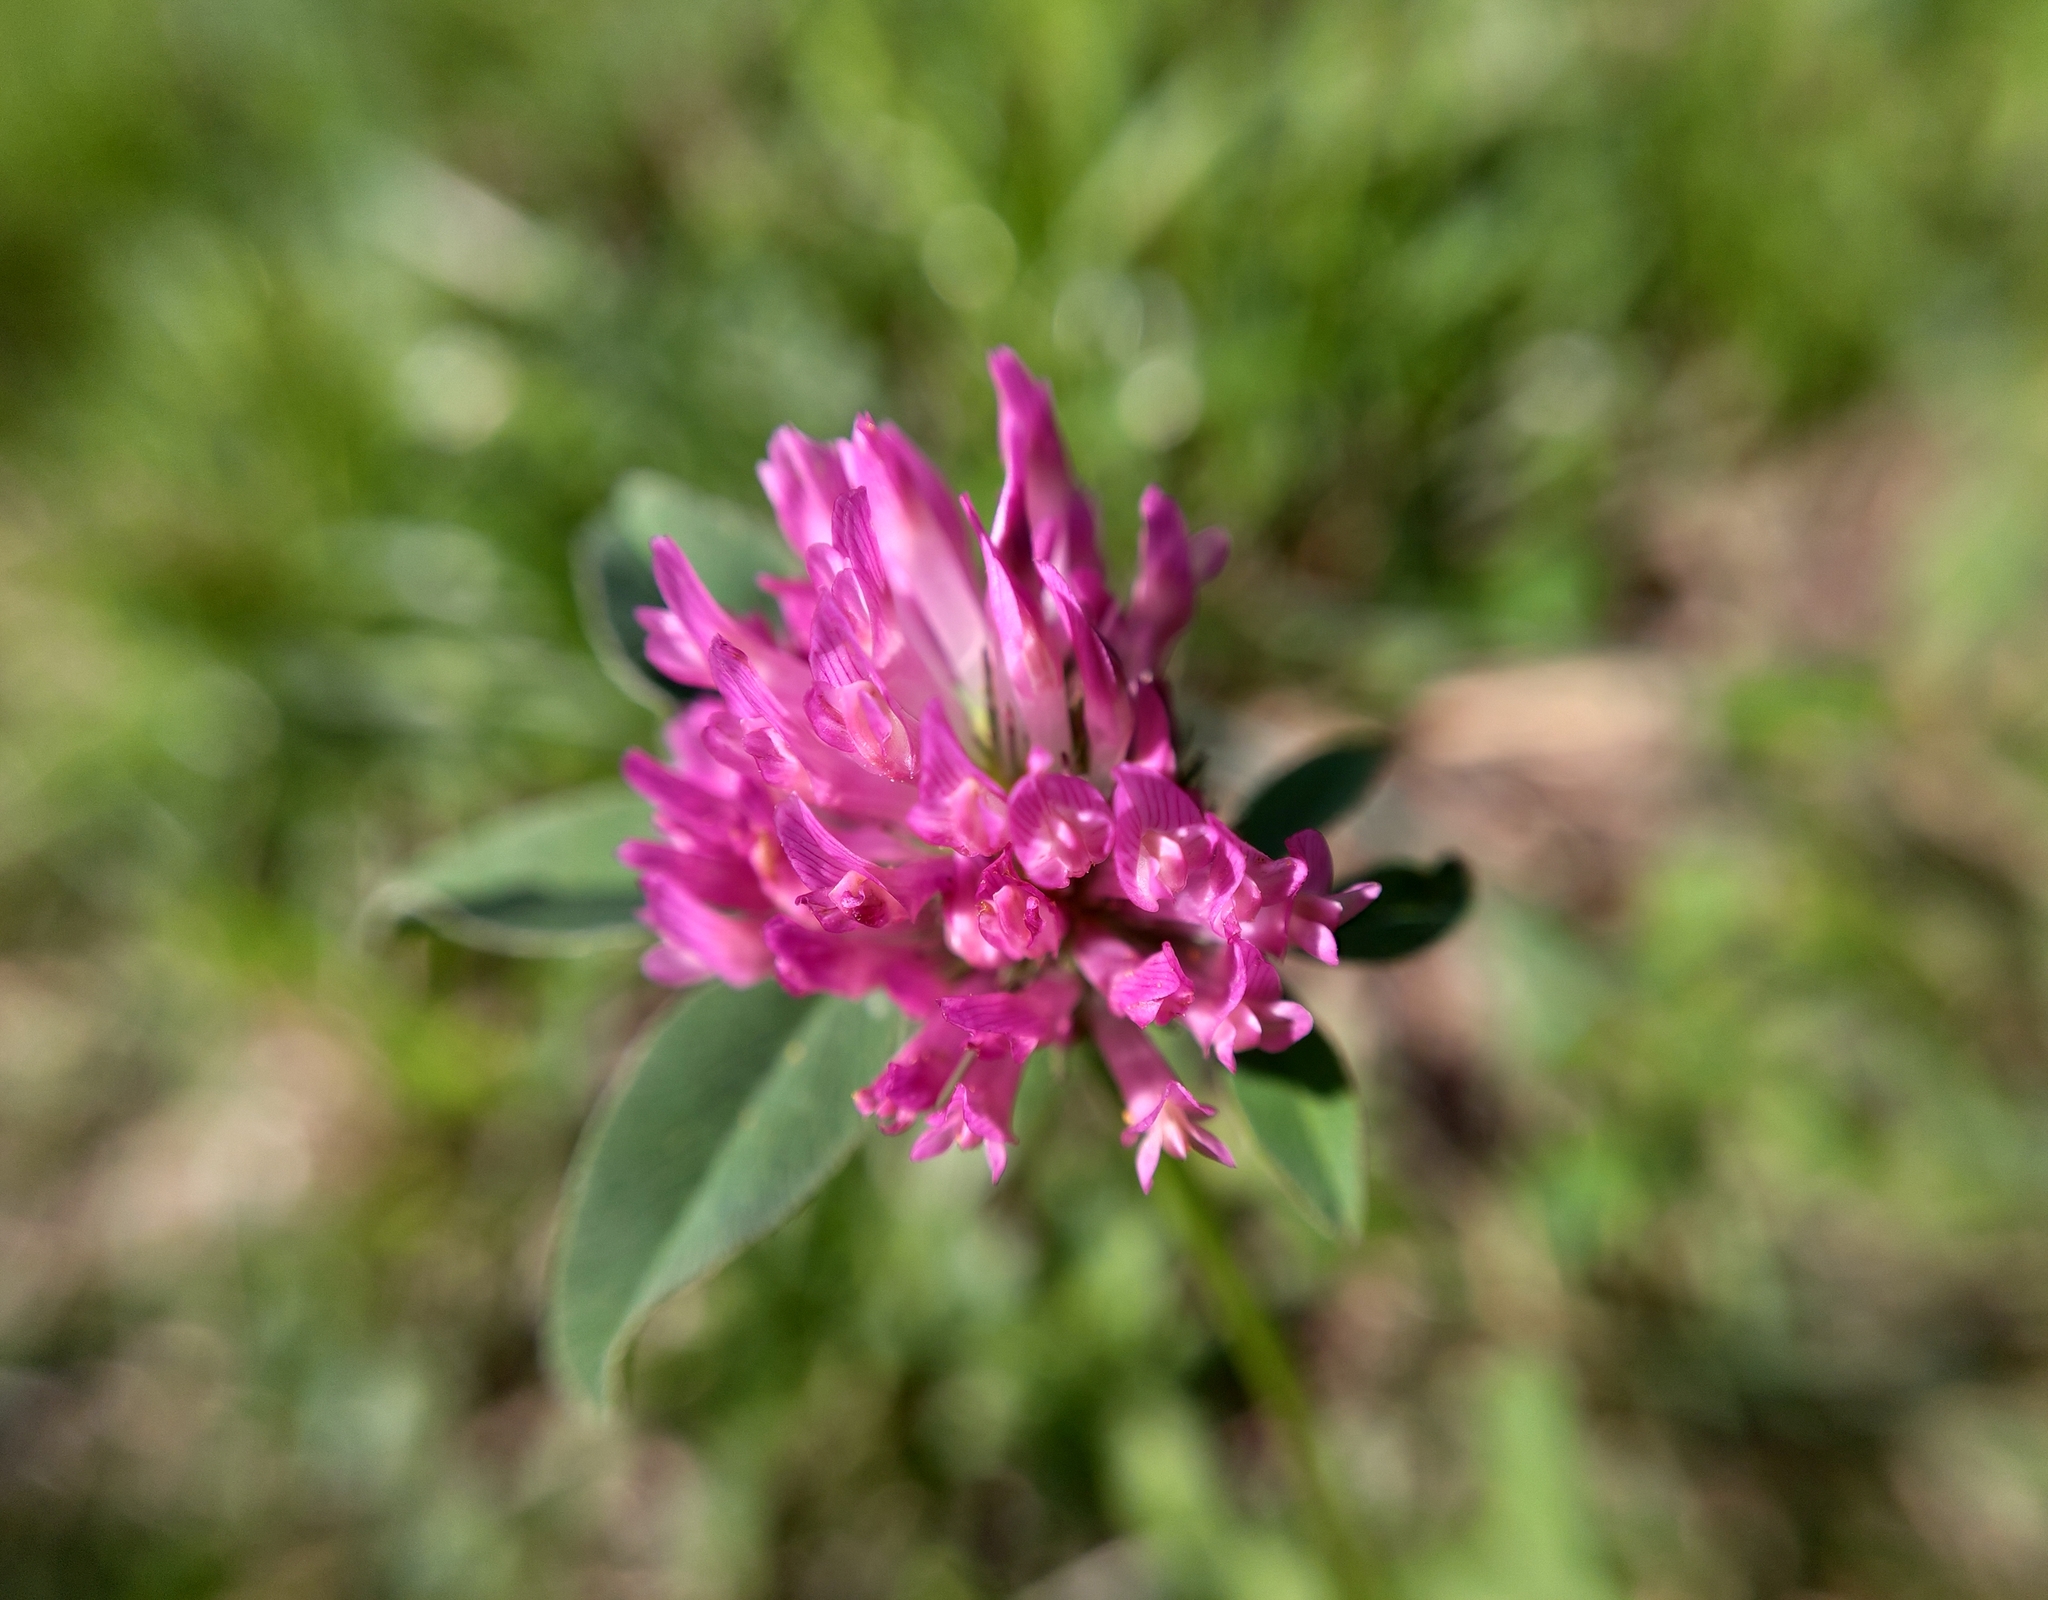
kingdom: Plantae
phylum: Tracheophyta
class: Magnoliopsida
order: Fabales
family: Fabaceae
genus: Trifolium
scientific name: Trifolium pratense
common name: Red clover
